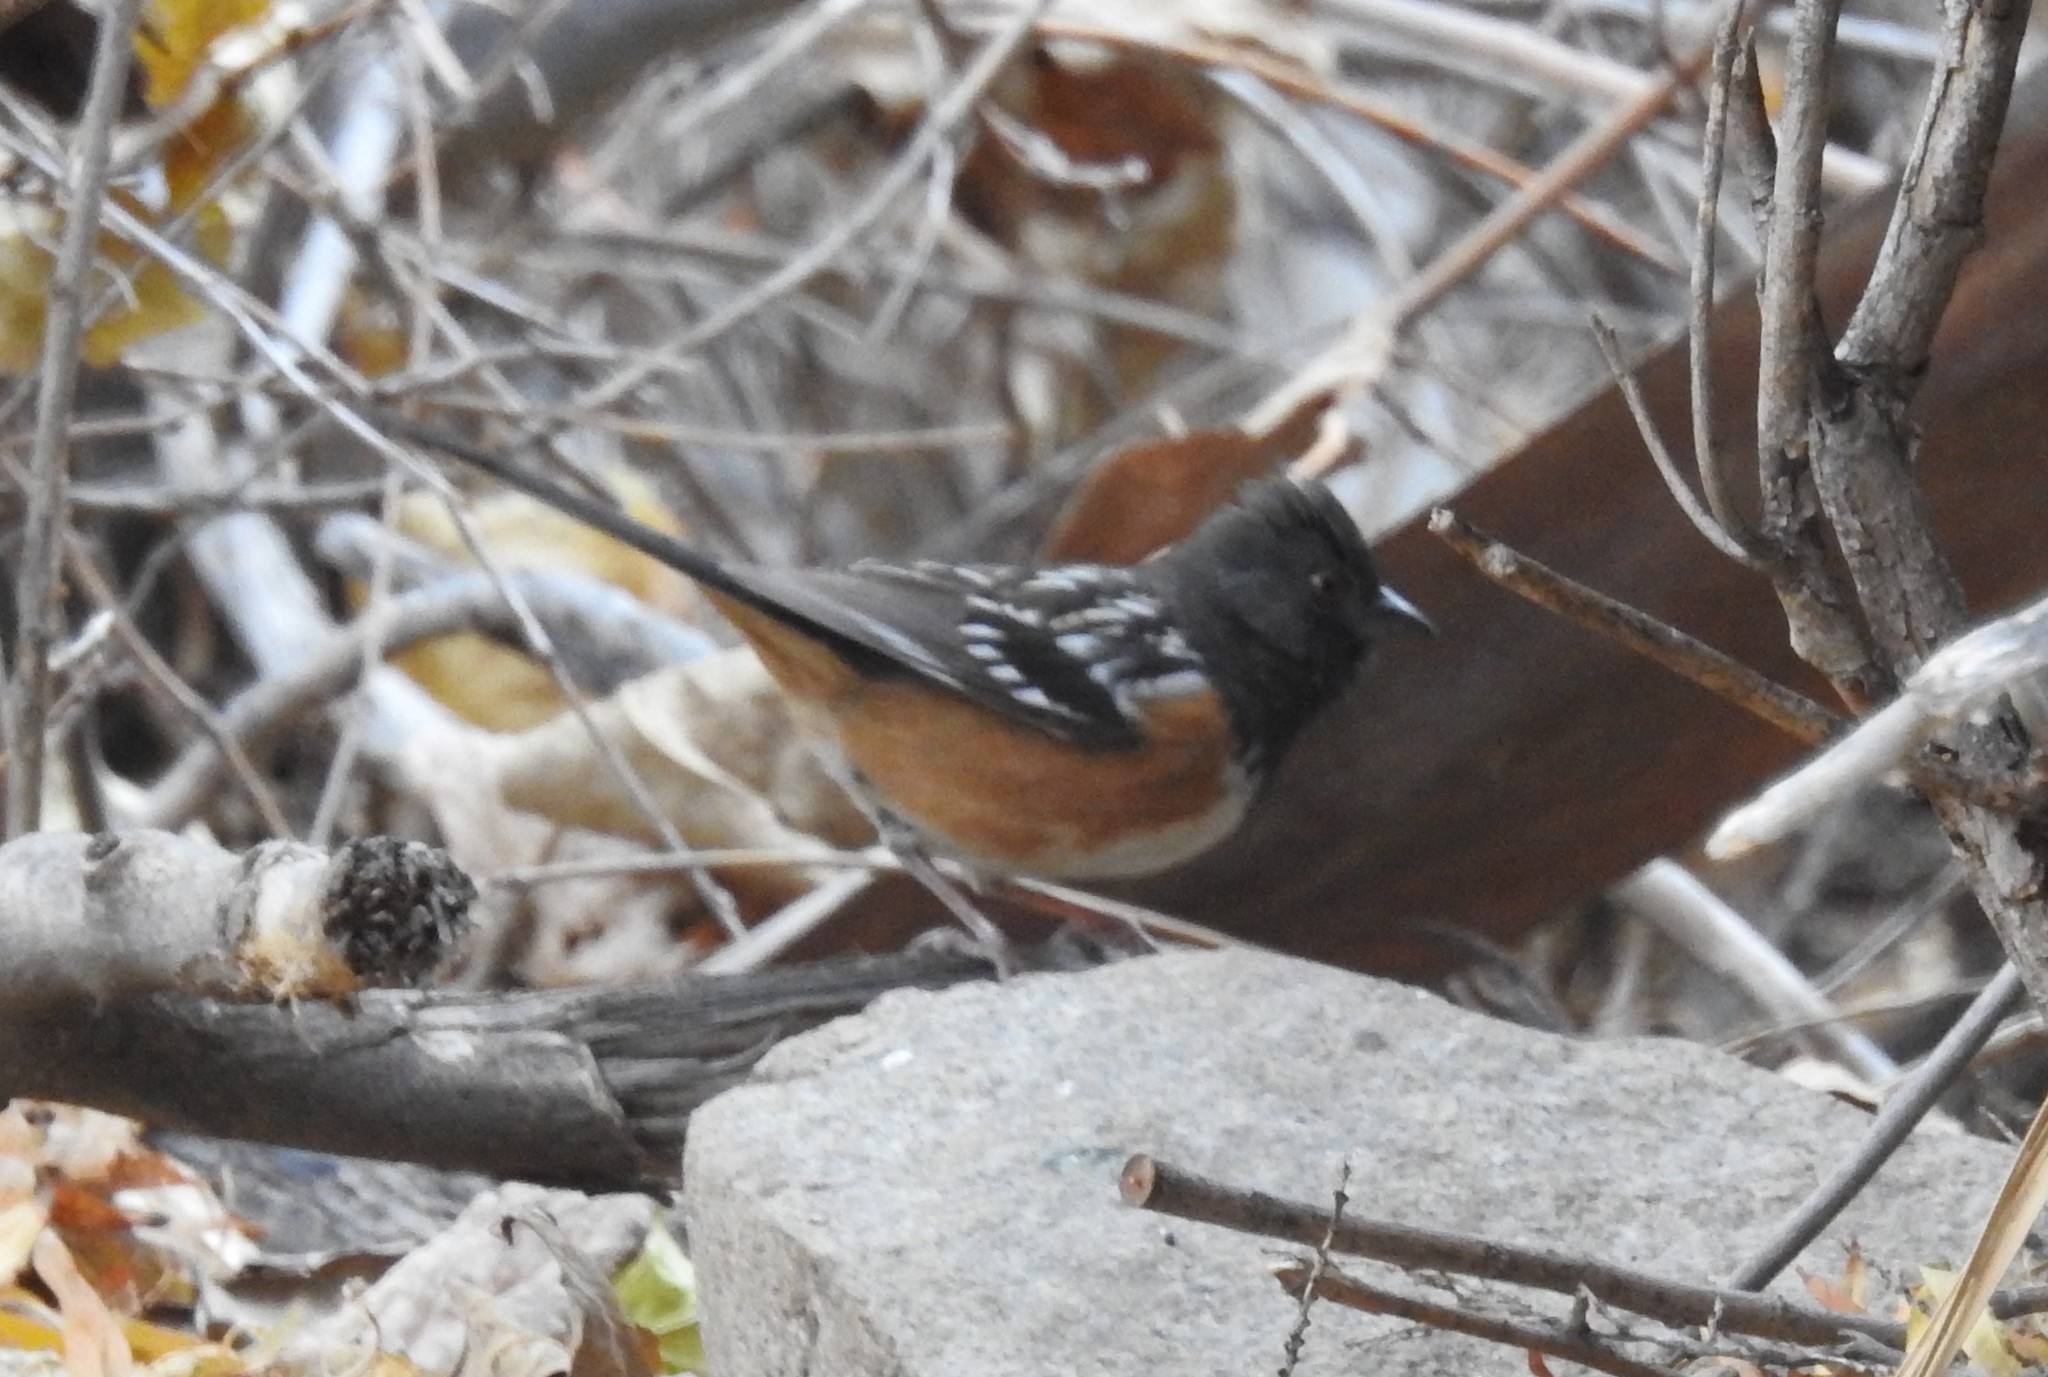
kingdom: Animalia
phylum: Chordata
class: Aves
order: Passeriformes
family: Passerellidae
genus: Pipilo
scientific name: Pipilo maculatus
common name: Spotted towhee
